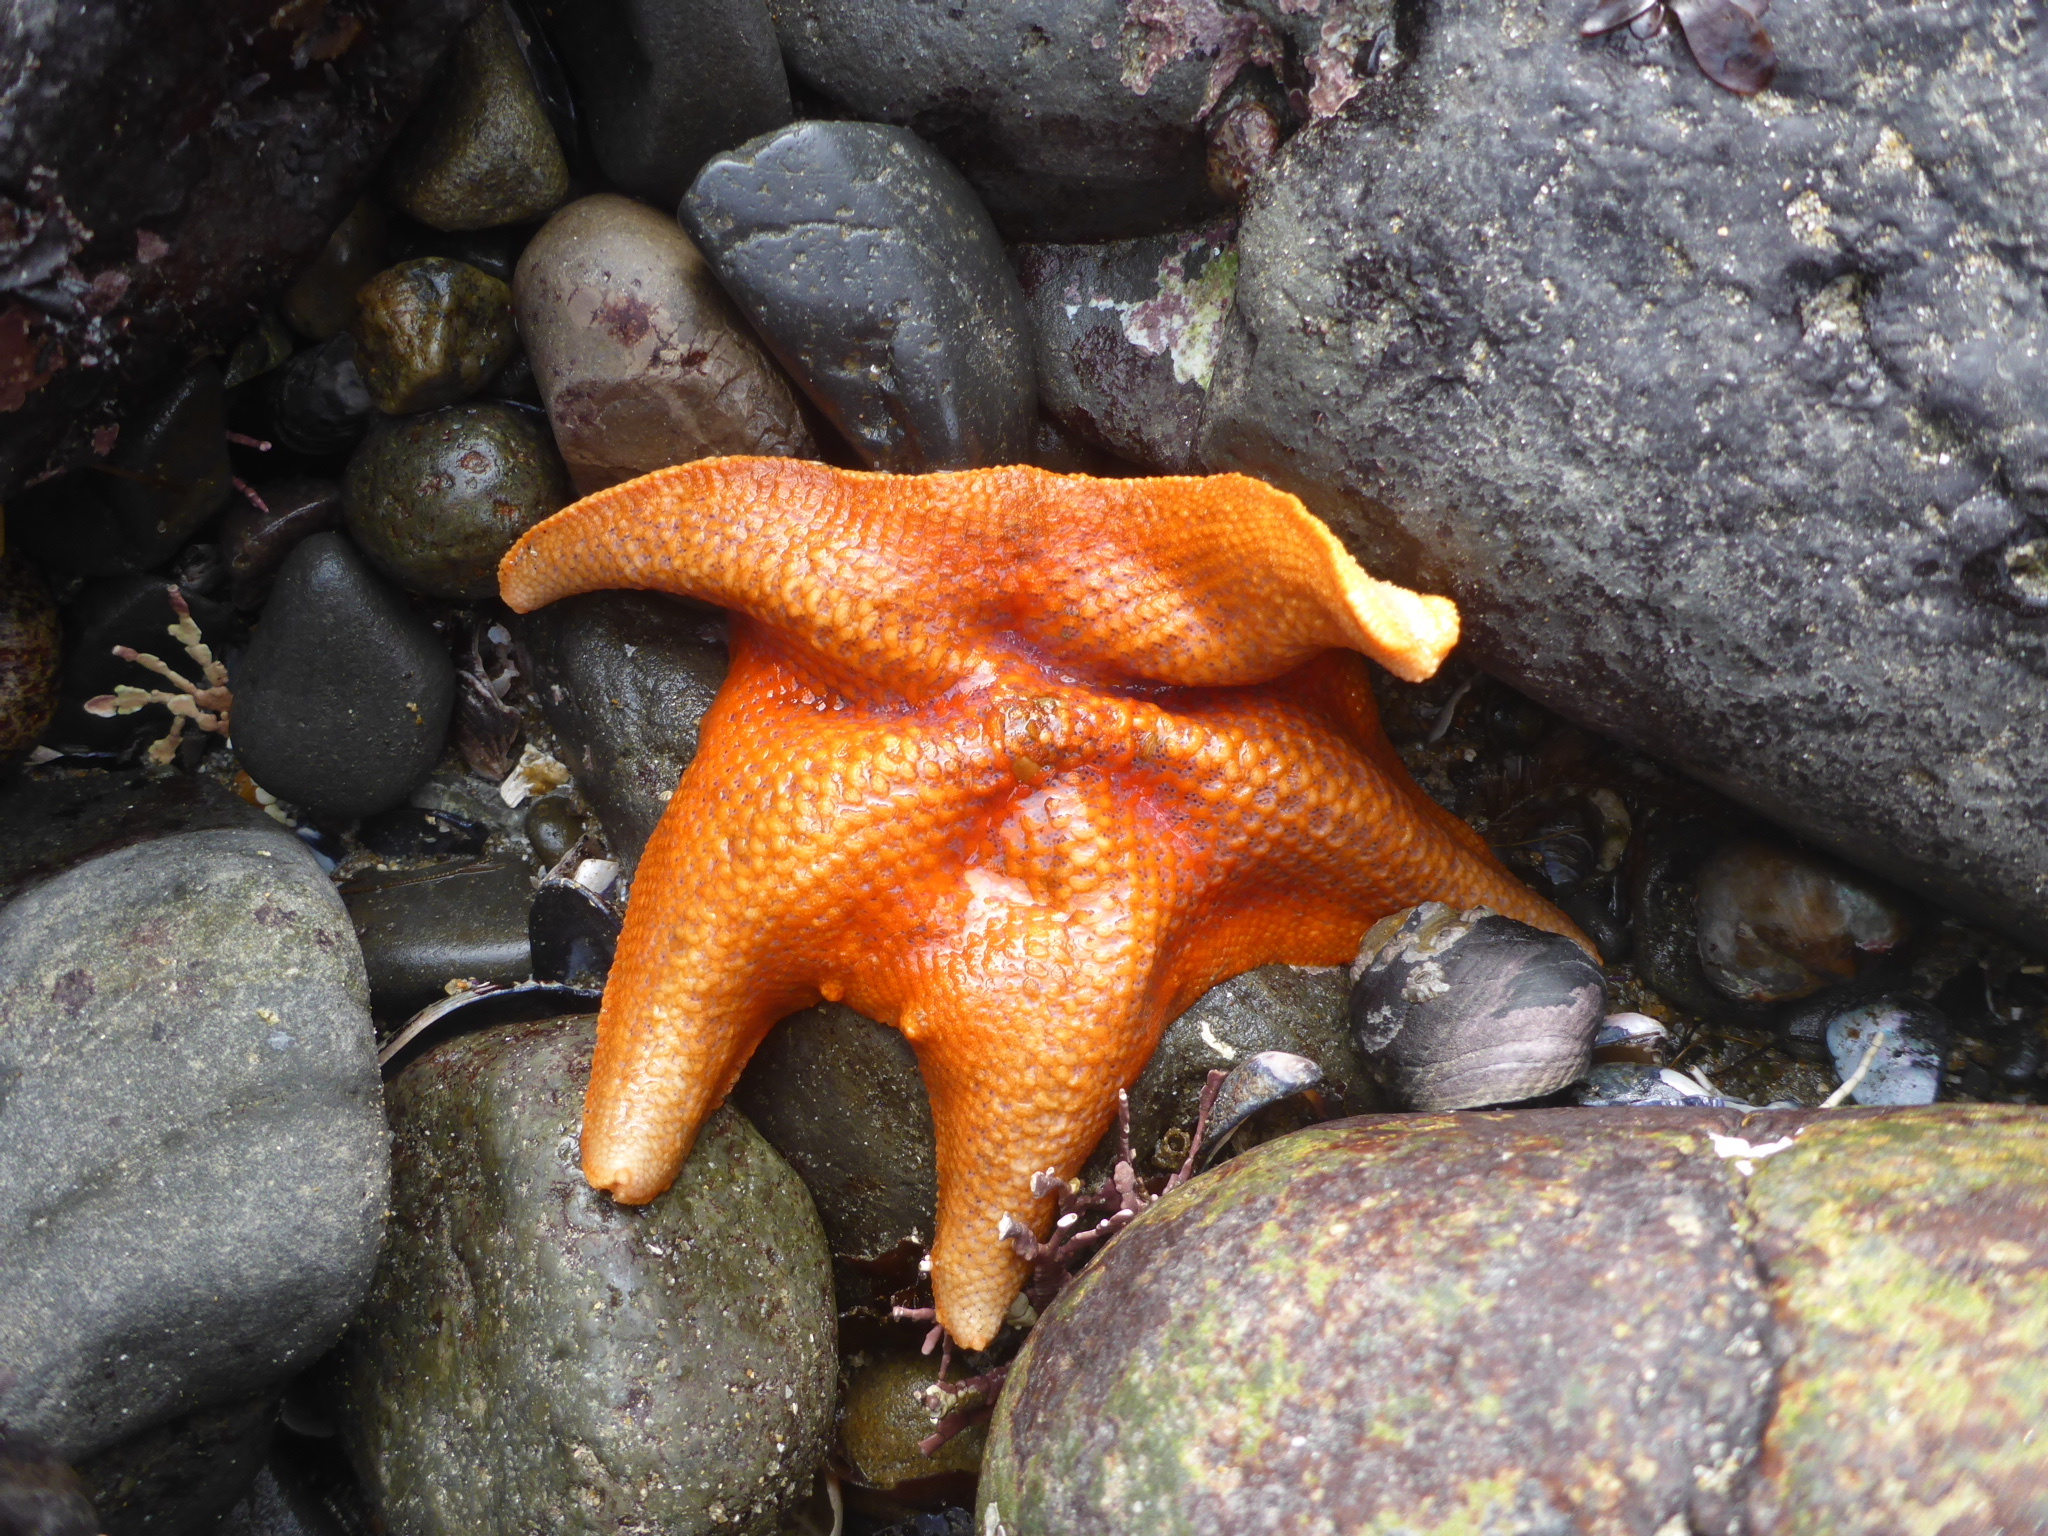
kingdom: Animalia
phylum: Echinodermata
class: Asteroidea
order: Valvatida
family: Asterinidae
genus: Patiria
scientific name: Patiria miniata
